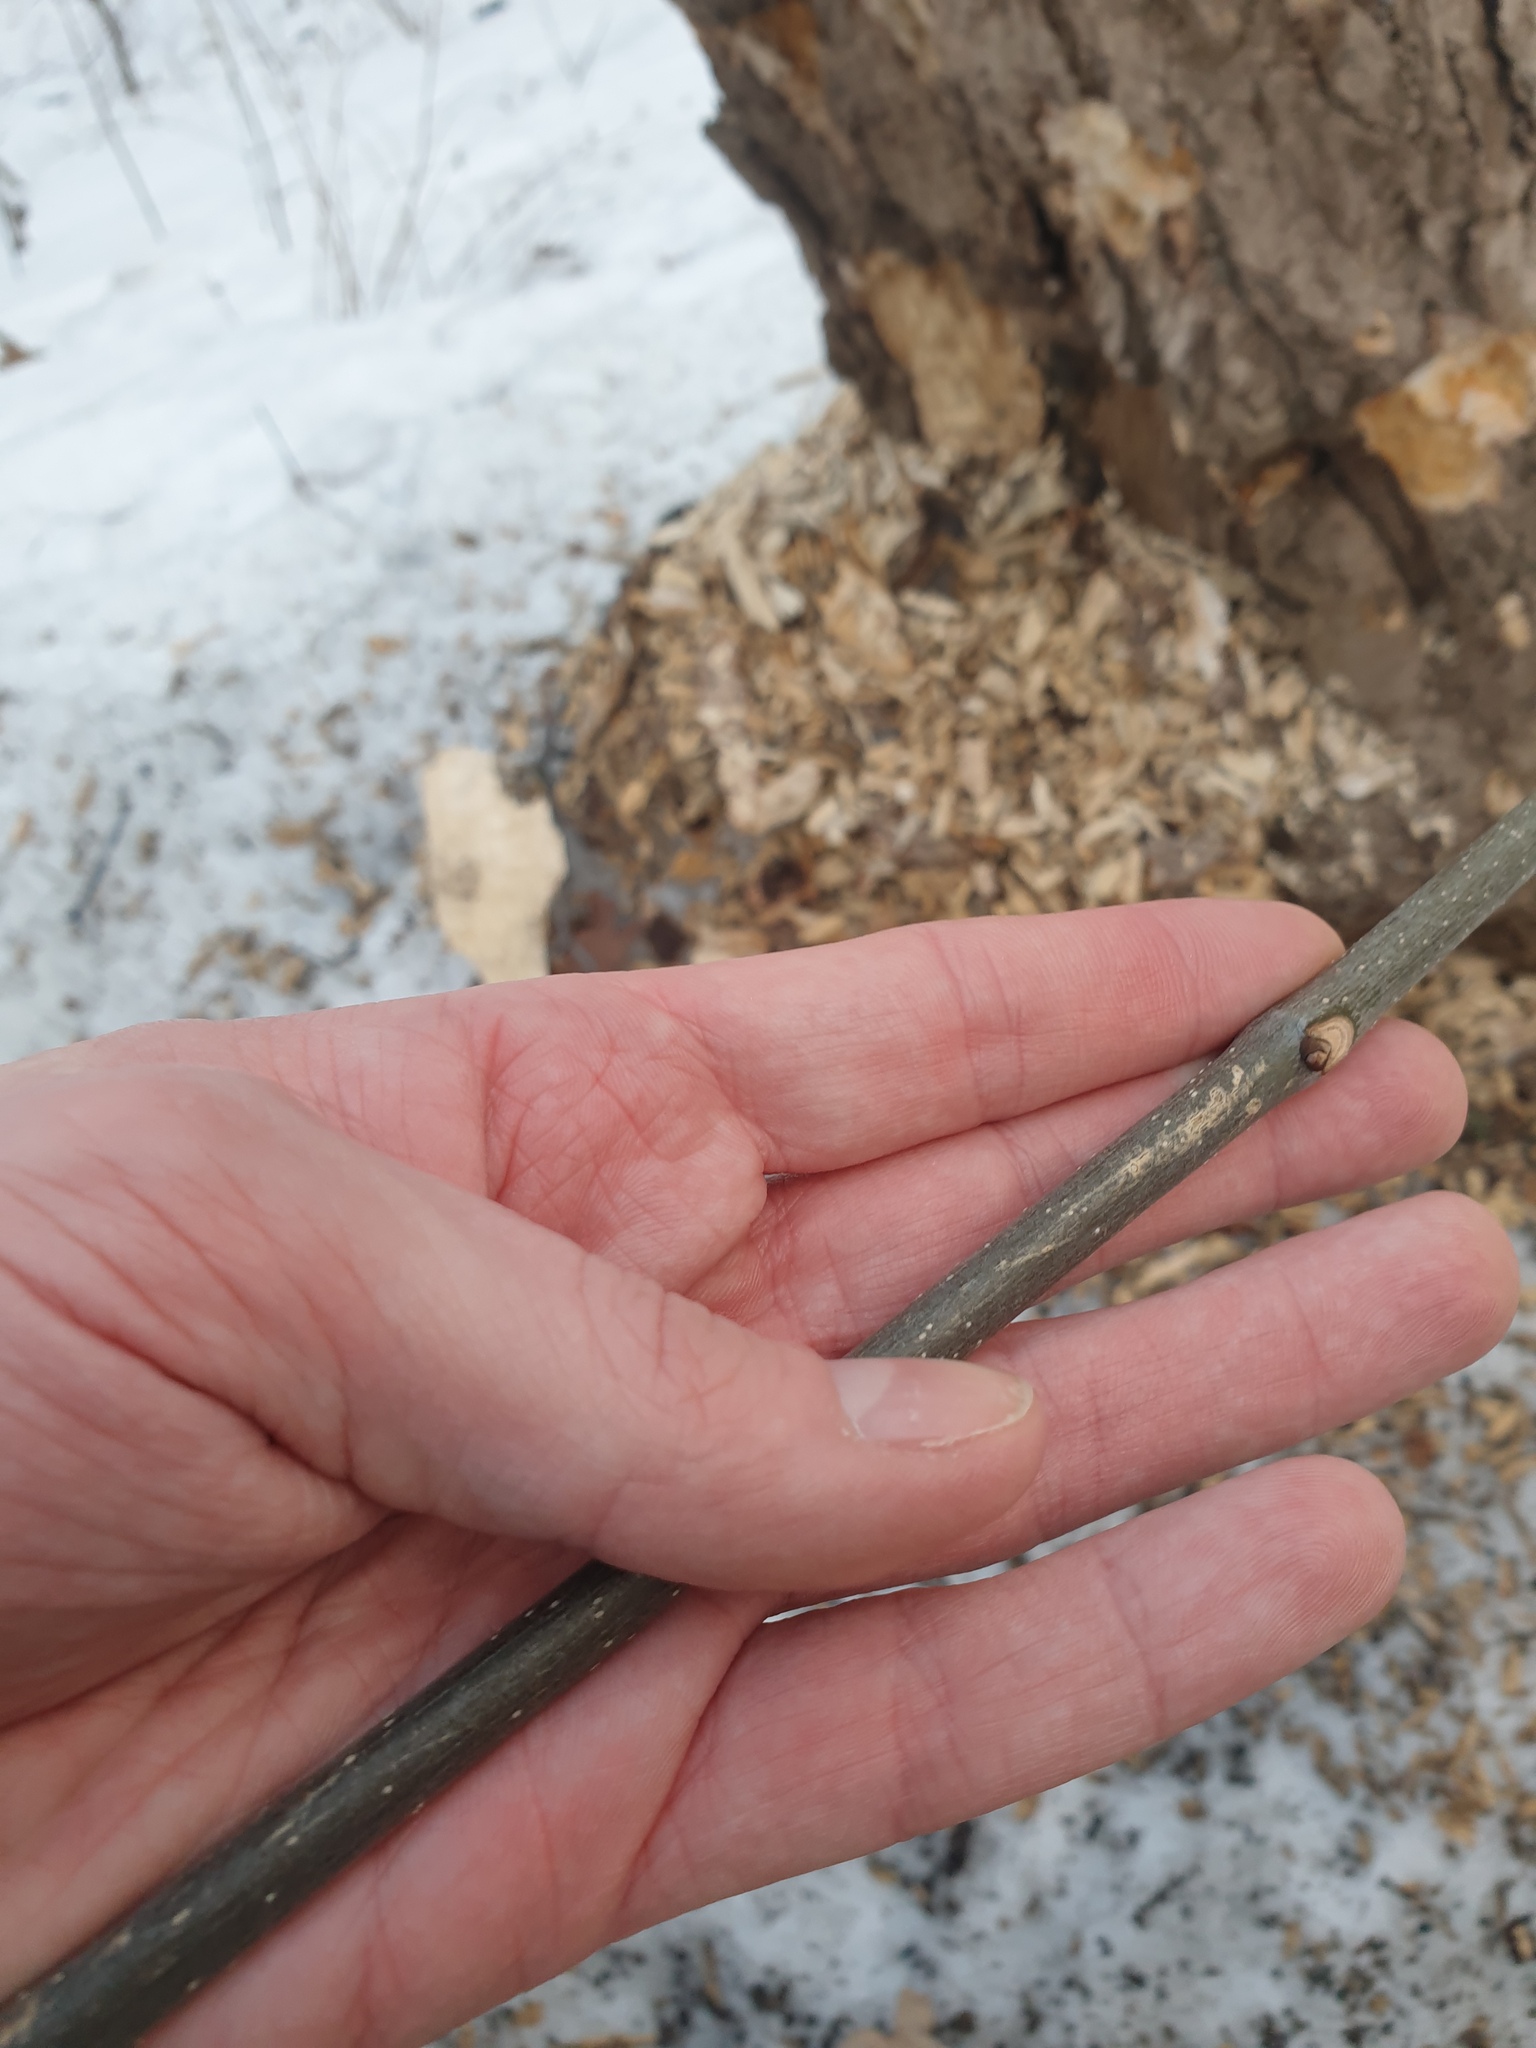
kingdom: Plantae
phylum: Tracheophyta
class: Magnoliopsida
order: Lamiales
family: Oleaceae
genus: Fraxinus
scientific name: Fraxinus americana
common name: White ash
